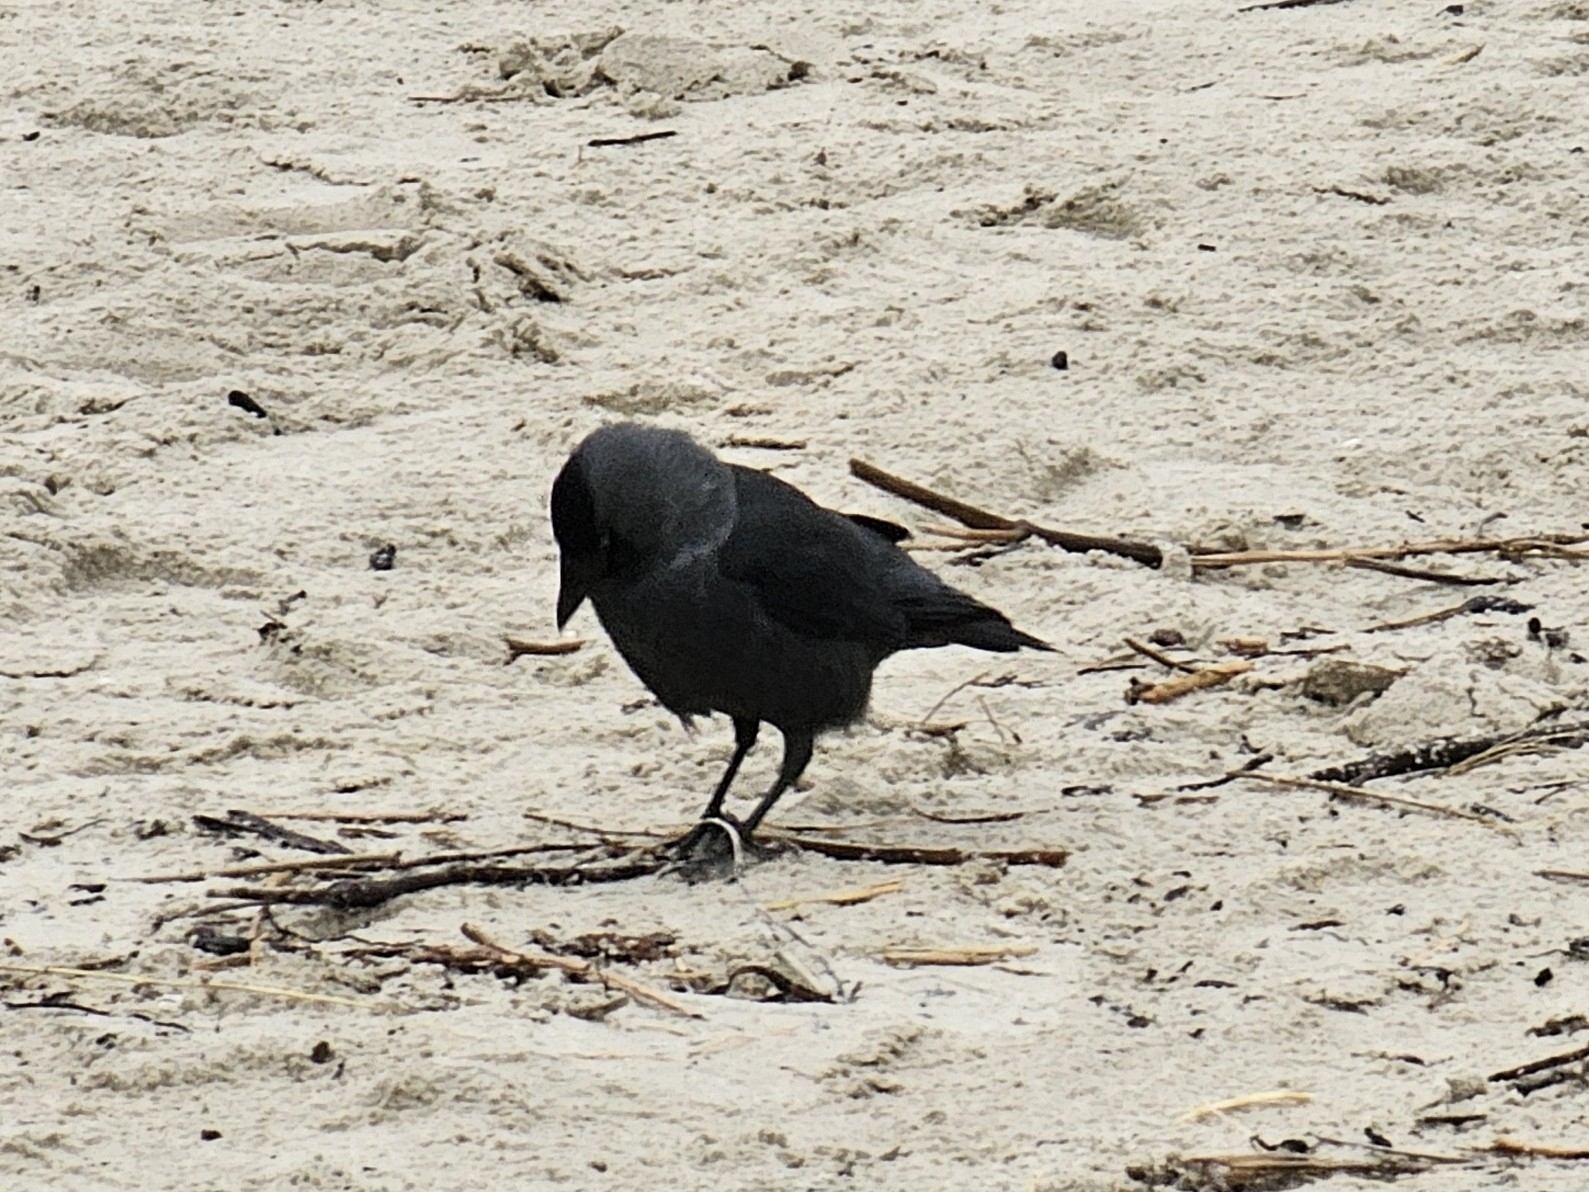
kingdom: Animalia
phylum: Chordata
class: Aves
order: Passeriformes
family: Corvidae
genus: Coloeus
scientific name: Coloeus monedula
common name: Western jackdaw
